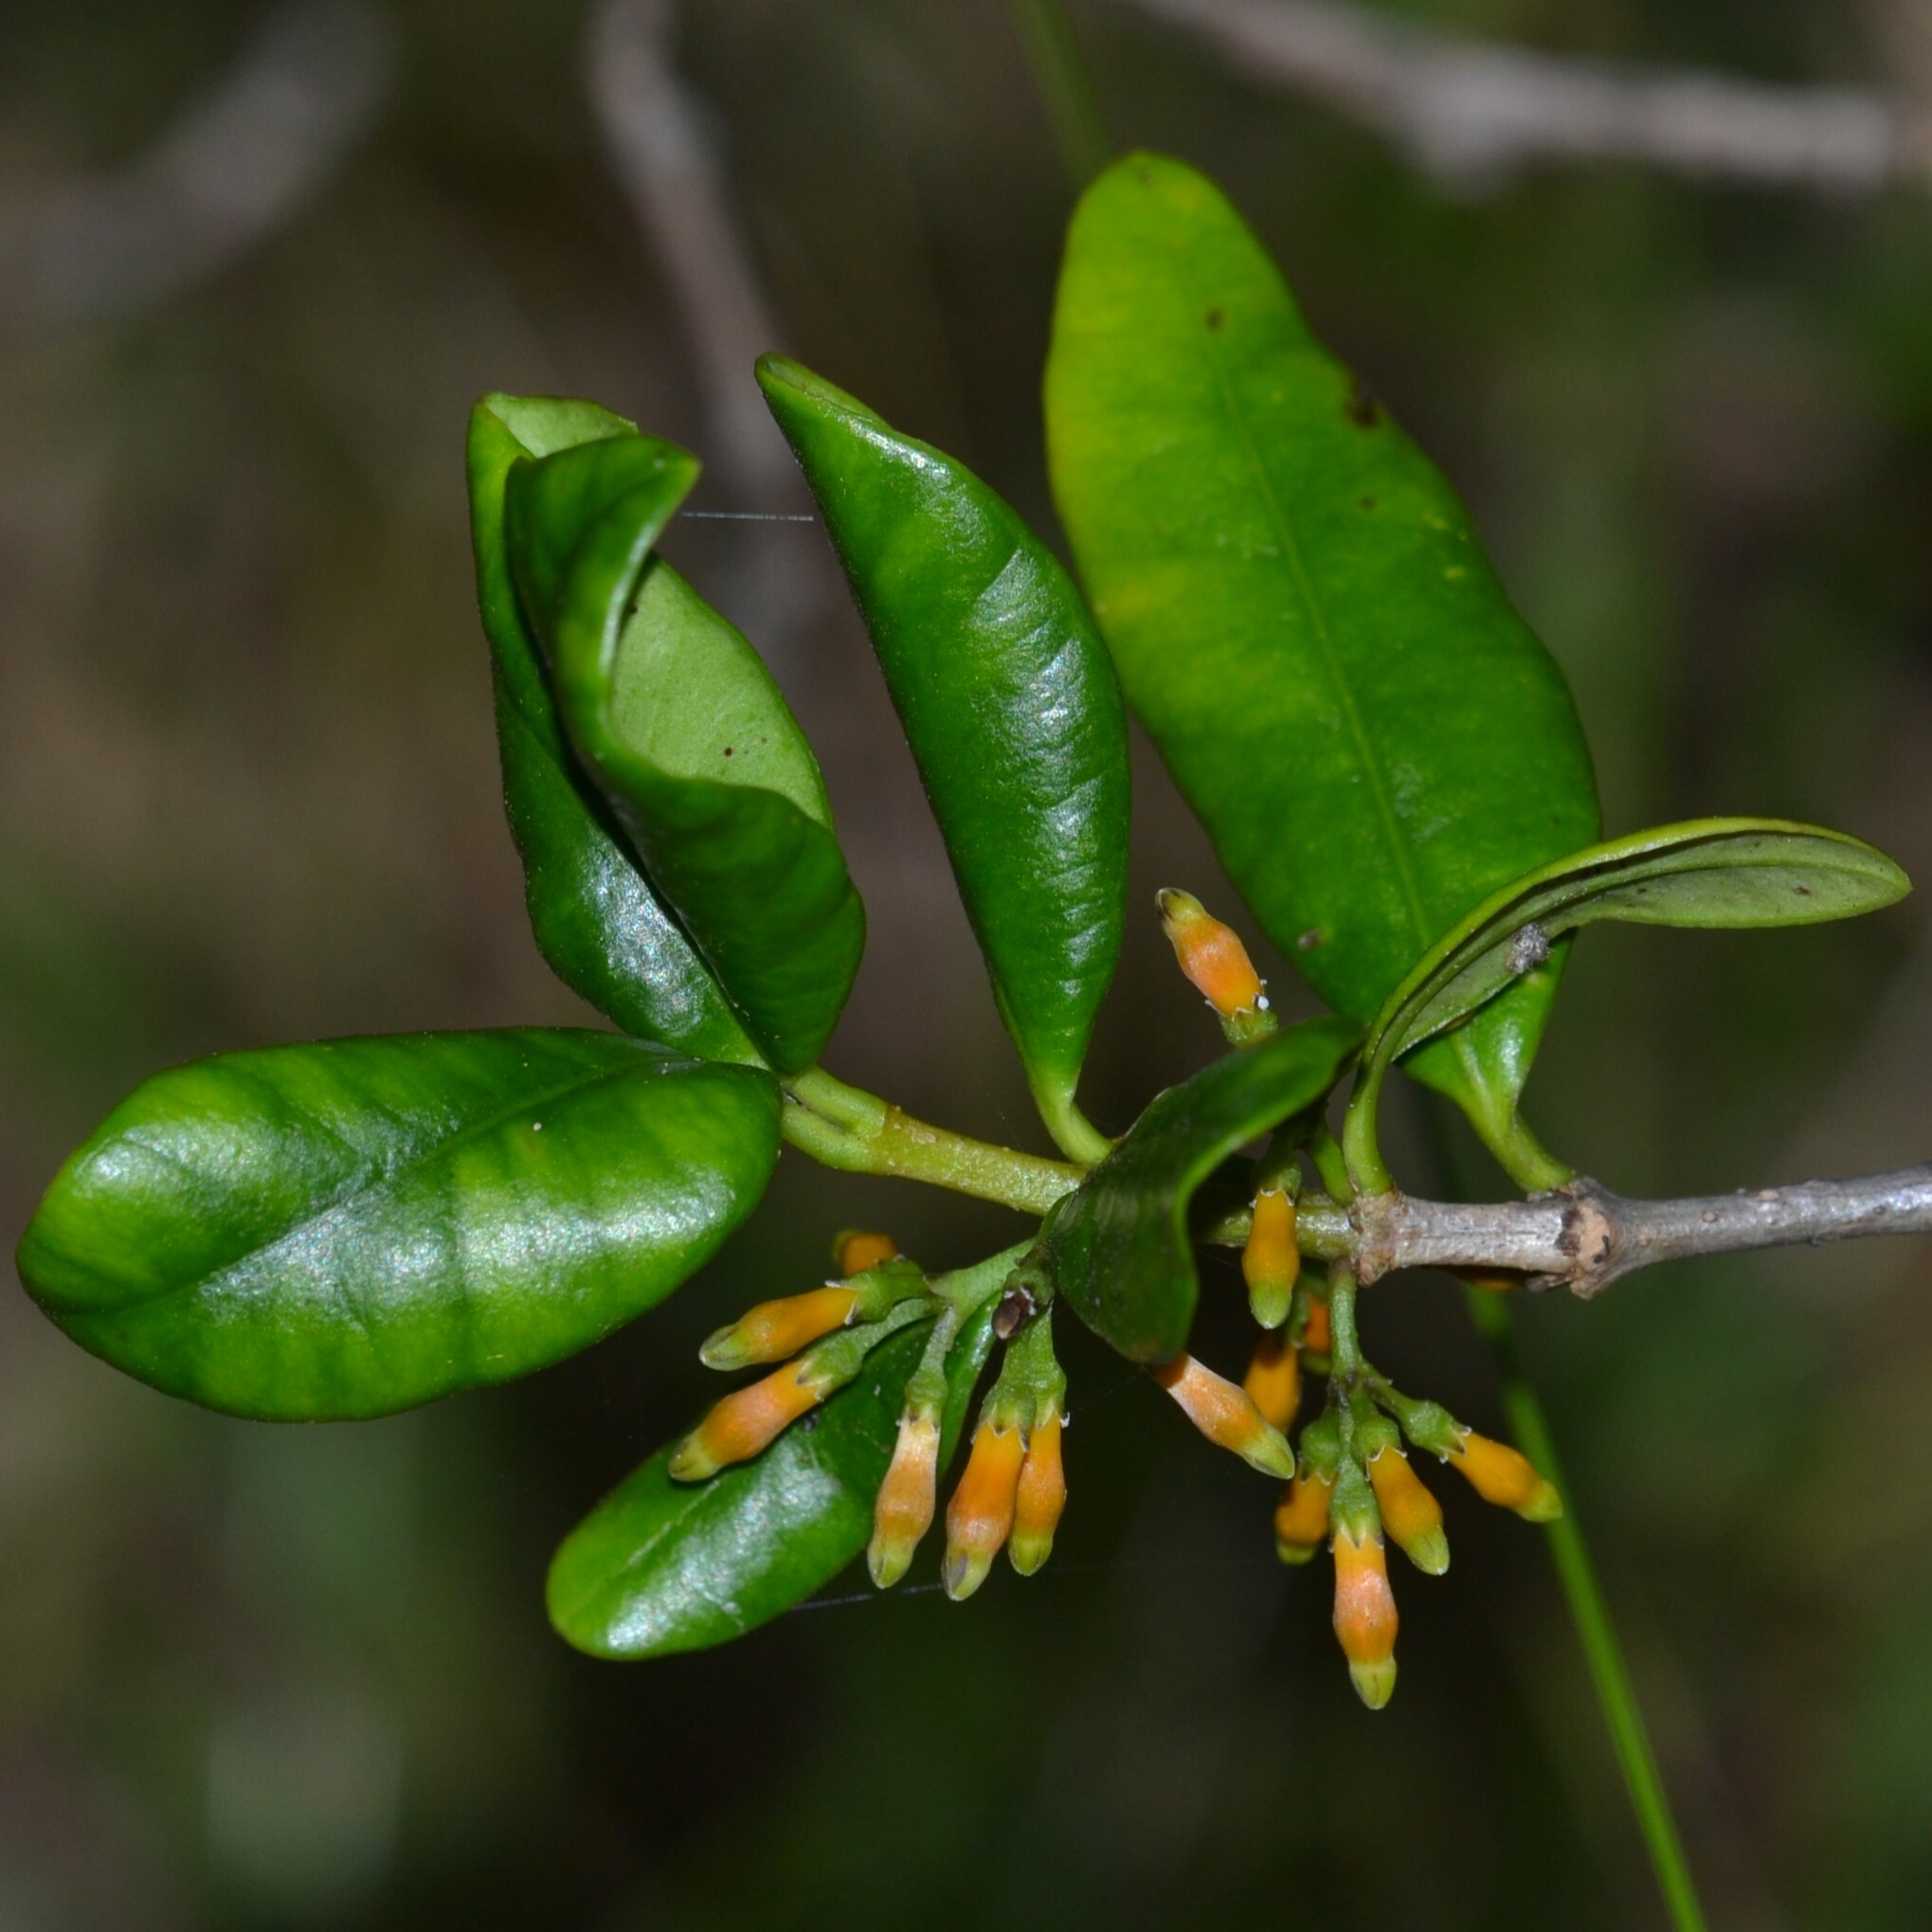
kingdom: Plantae
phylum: Tracheophyta
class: Magnoliopsida
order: Gentianales
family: Apocynaceae
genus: Alyxia
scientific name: Alyxia stellata
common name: Maile
